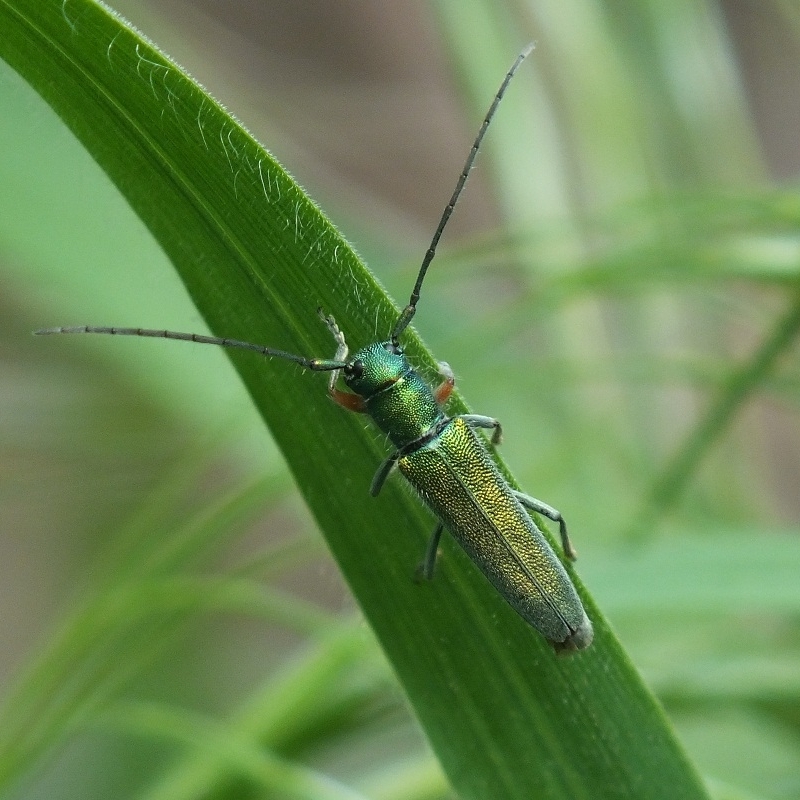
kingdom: Animalia
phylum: Arthropoda
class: Insecta
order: Coleoptera
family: Cerambycidae
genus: Phytoecia
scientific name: Phytoecia caerulea
